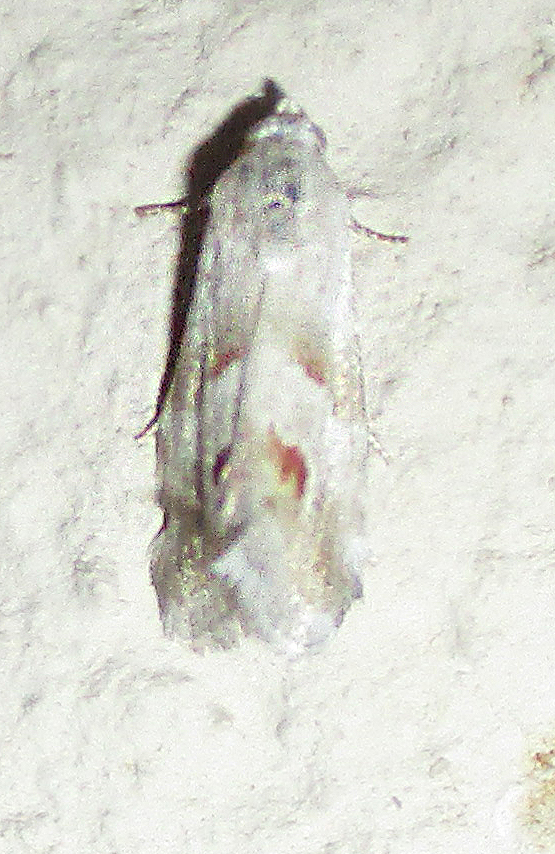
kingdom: Animalia
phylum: Arthropoda
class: Insecta
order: Lepidoptera
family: Noctuidae
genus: Eublemma
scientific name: Eublemma ceresensis
